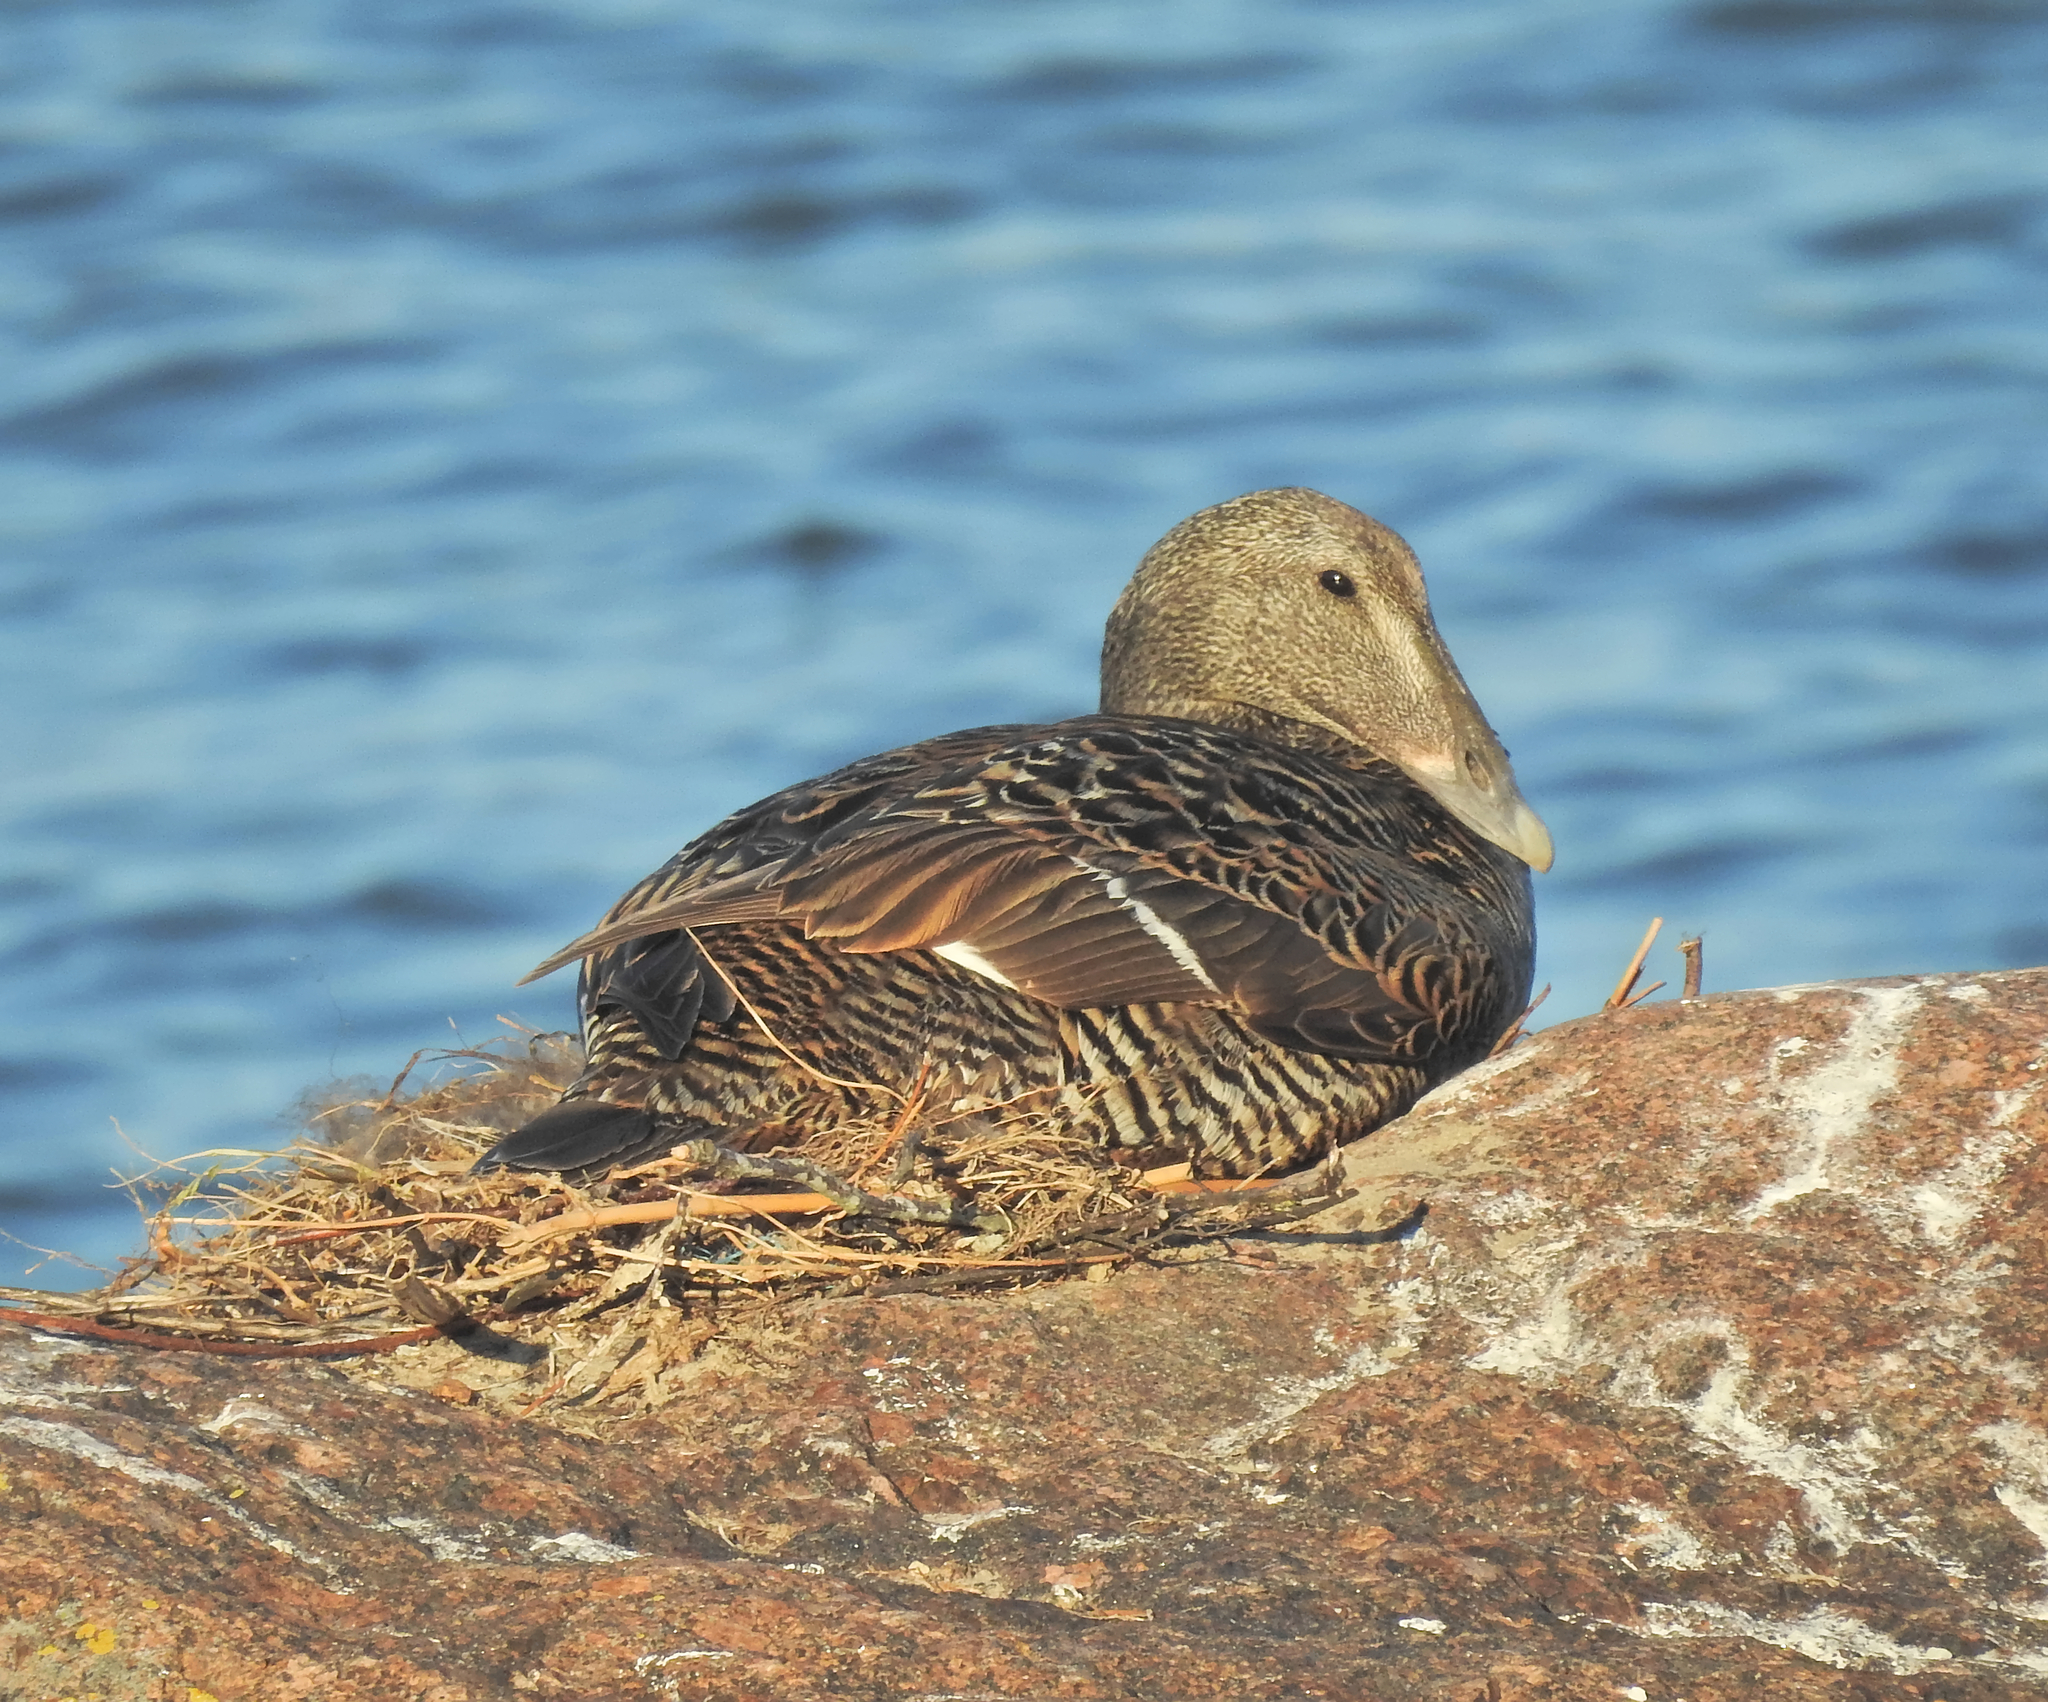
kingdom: Animalia
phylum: Chordata
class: Aves
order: Anseriformes
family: Anatidae
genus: Somateria
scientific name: Somateria mollissima
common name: Common eider
